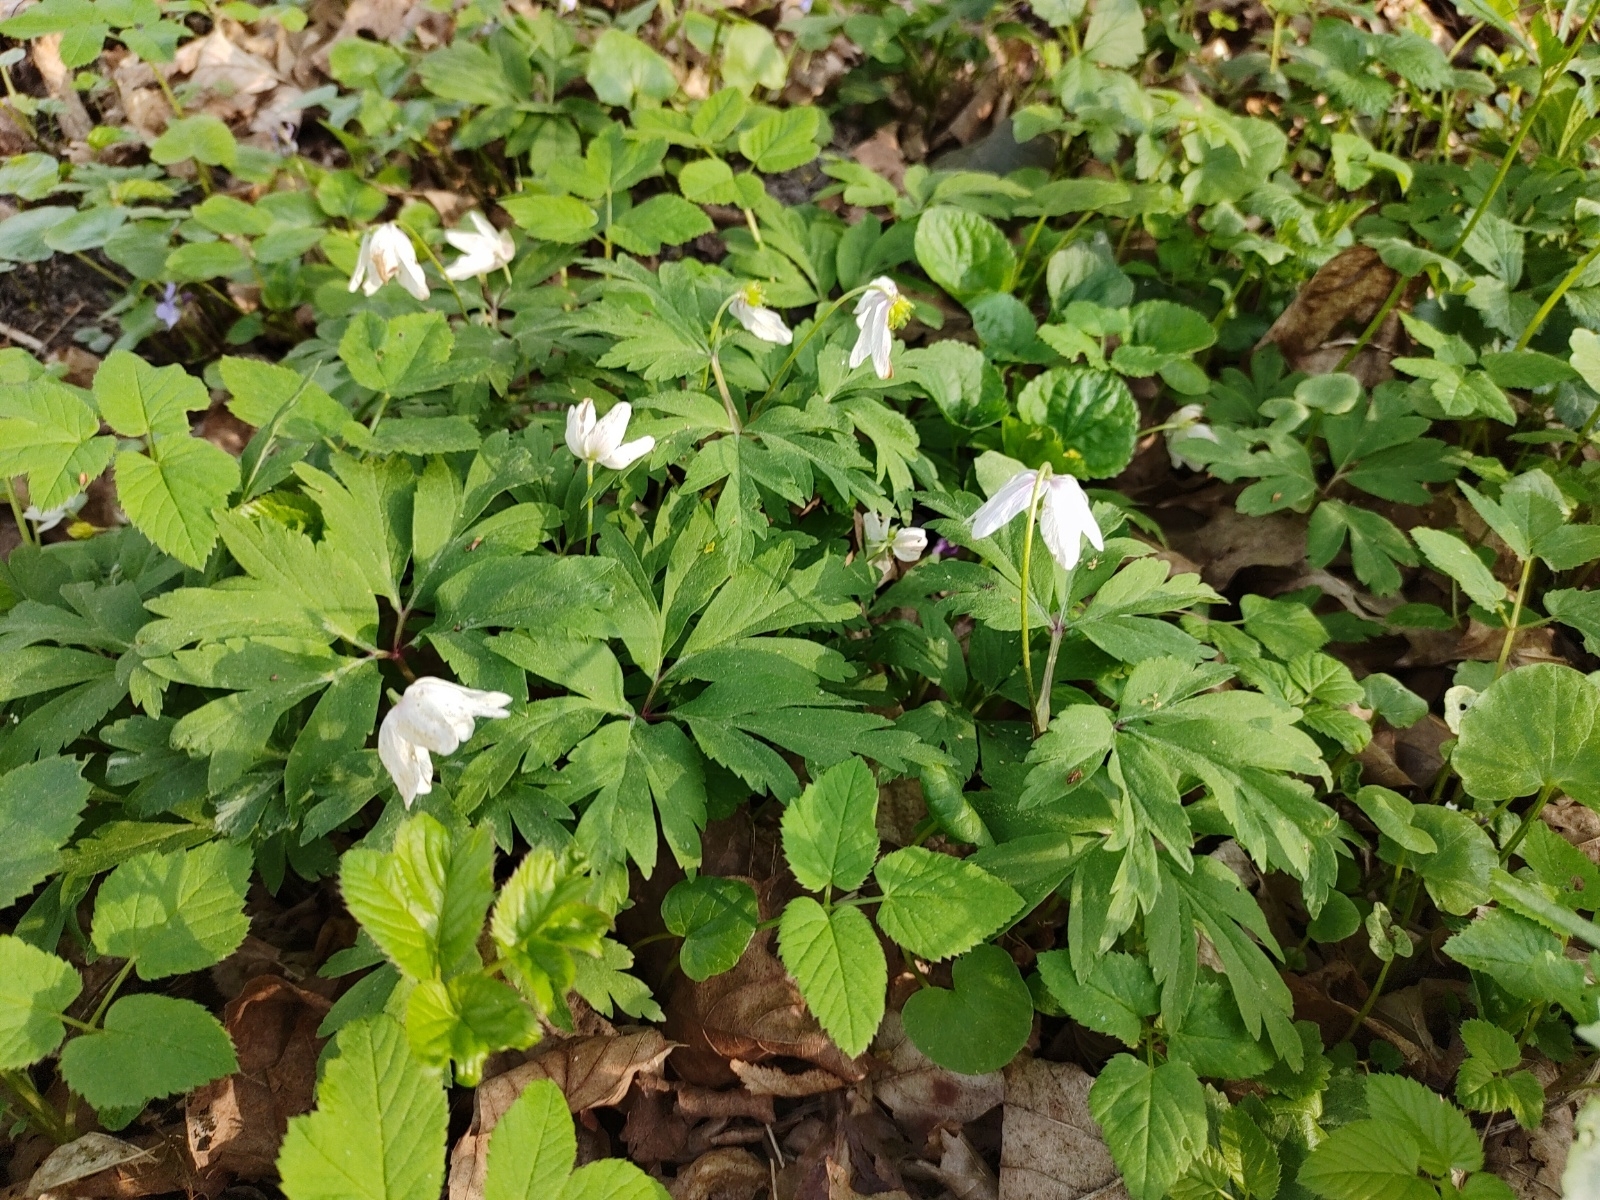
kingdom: Plantae
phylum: Tracheophyta
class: Magnoliopsida
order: Ranunculales
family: Ranunculaceae
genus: Anemone
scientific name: Anemone nemorosa
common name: Wood anemone
